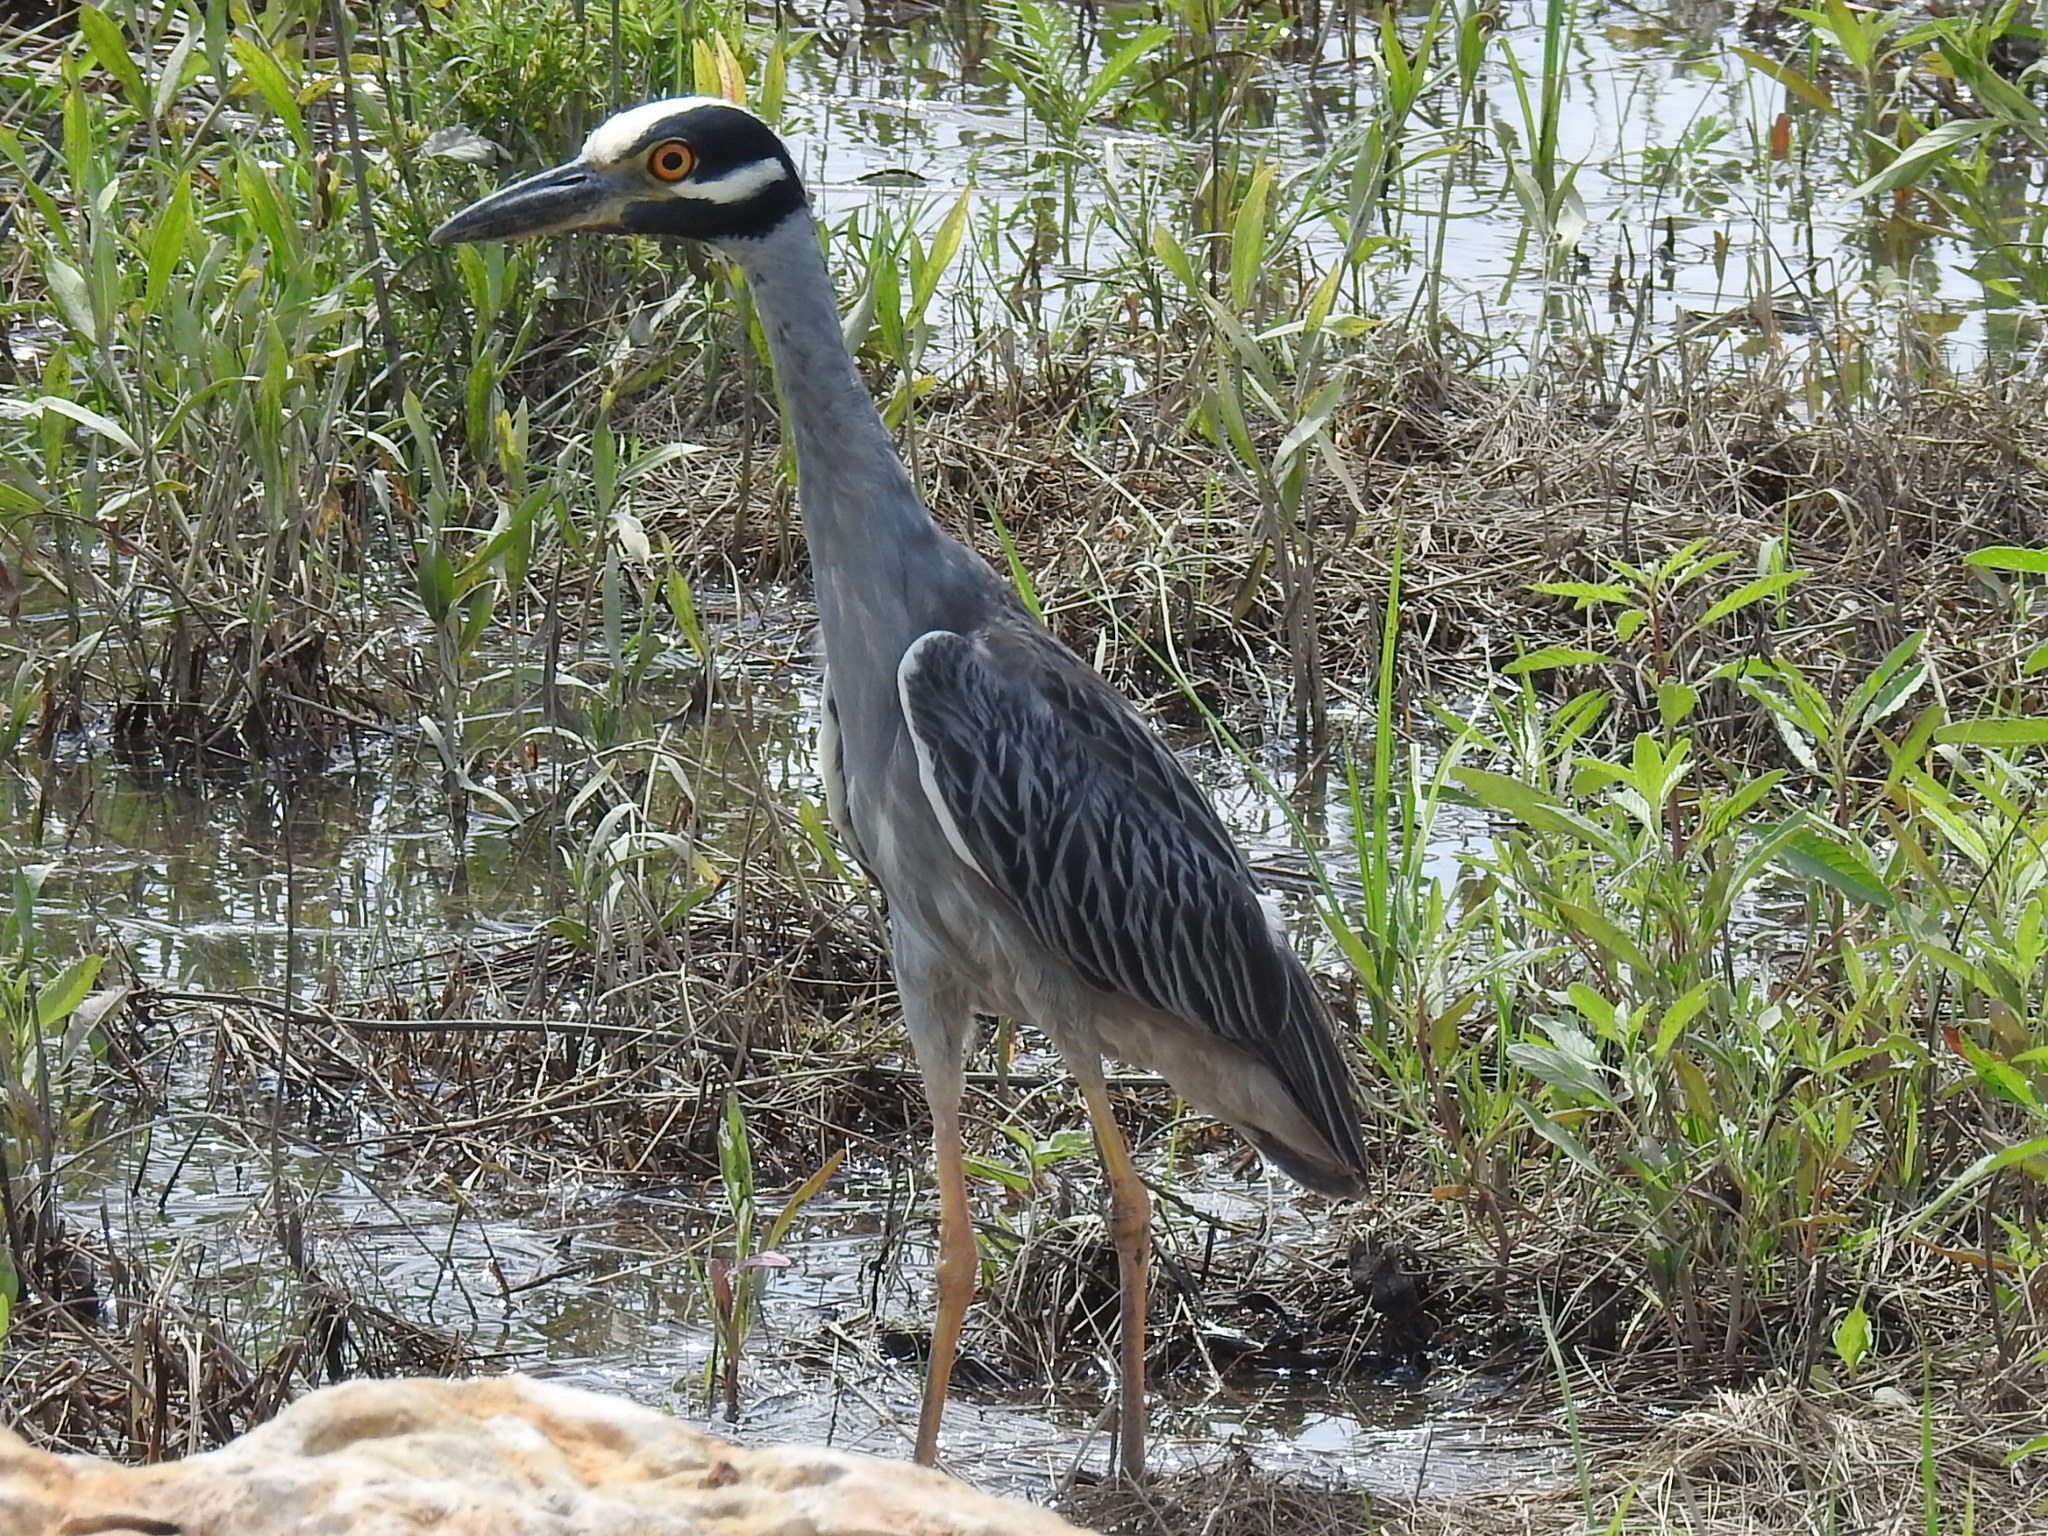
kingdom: Animalia
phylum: Chordata
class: Aves
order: Pelecaniformes
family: Ardeidae
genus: Nyctanassa
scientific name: Nyctanassa violacea
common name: Yellow-crowned night heron
